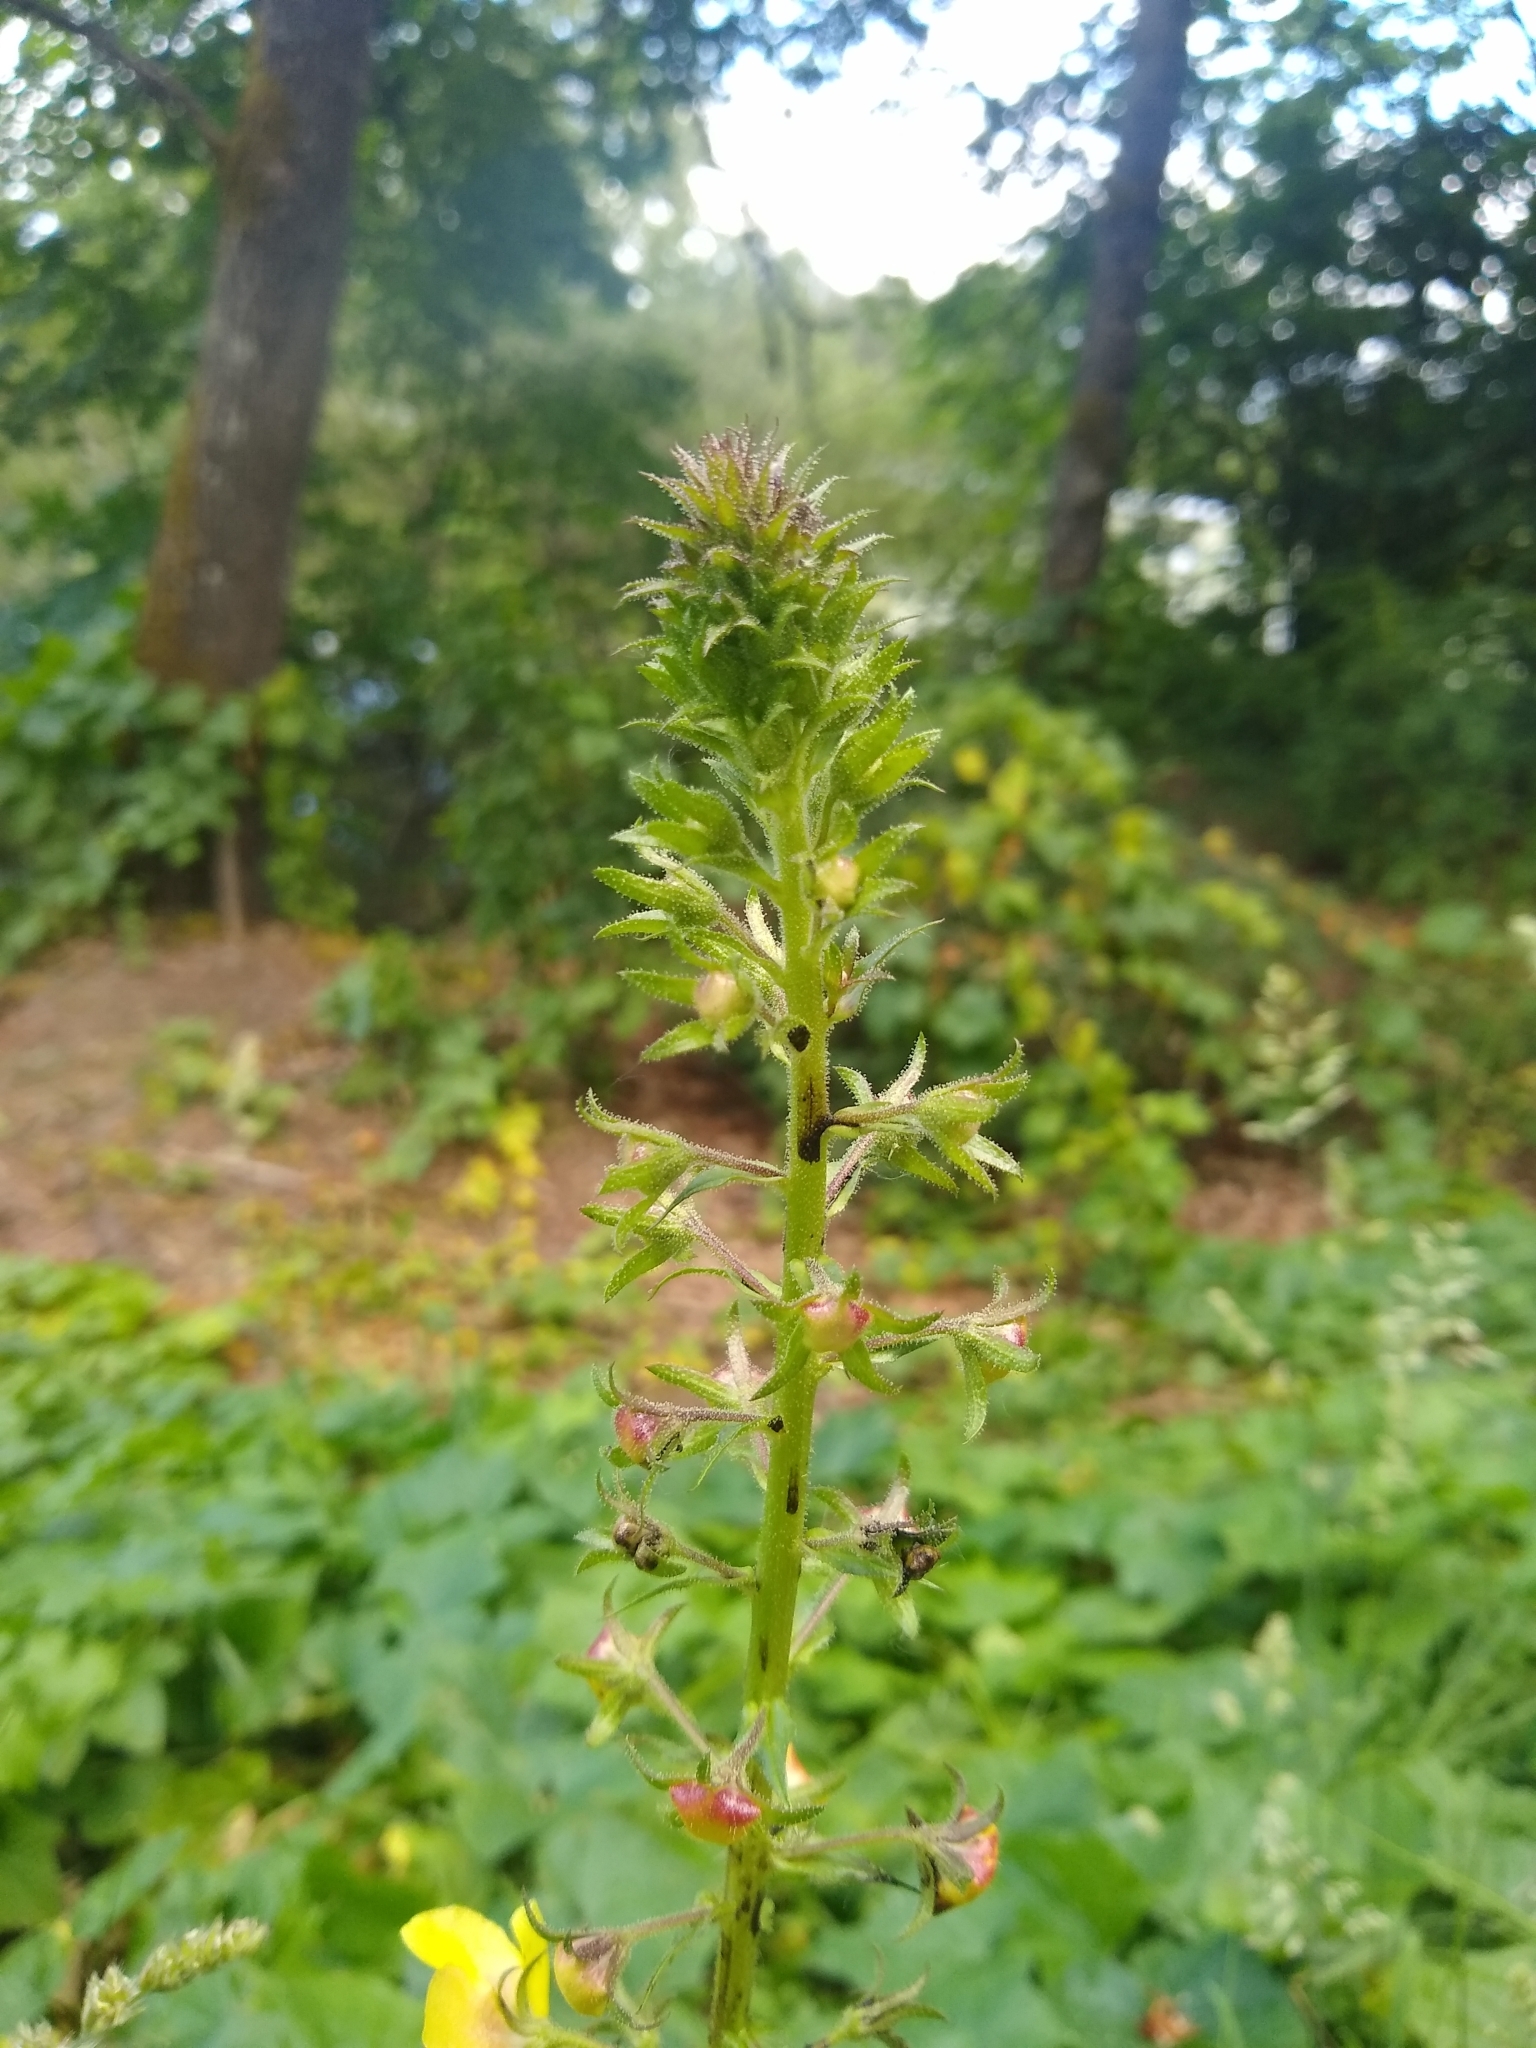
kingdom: Plantae
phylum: Tracheophyta
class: Magnoliopsida
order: Lamiales
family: Scrophulariaceae
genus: Verbascum
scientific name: Verbascum blattaria
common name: Moth mullein
